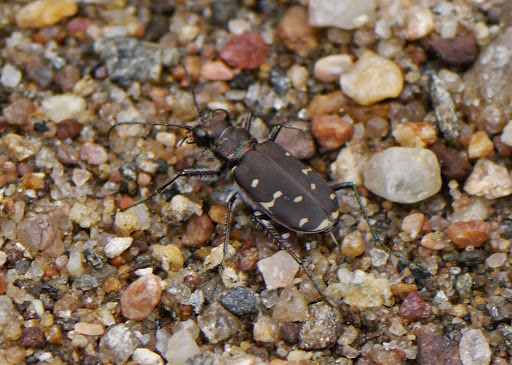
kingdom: Animalia
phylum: Arthropoda
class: Insecta
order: Coleoptera
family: Carabidae
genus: Cicindela
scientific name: Cicindela duodecimguttata
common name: Twelve-spotted tiger beetle
